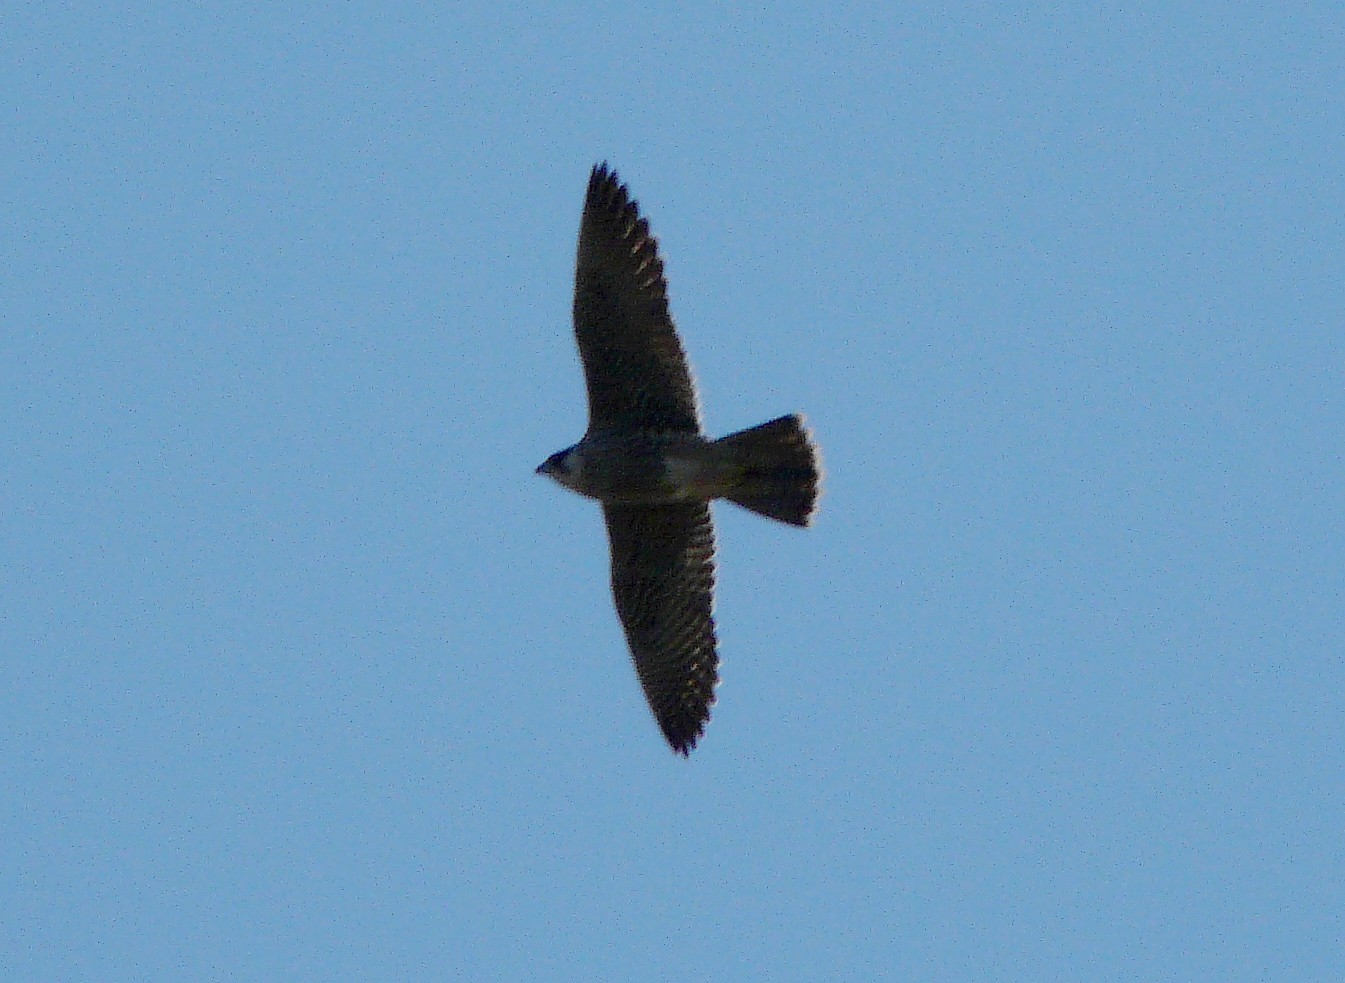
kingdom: Animalia
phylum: Chordata
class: Aves
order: Falconiformes
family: Falconidae
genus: Falco
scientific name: Falco peregrinus
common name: Peregrine falcon
